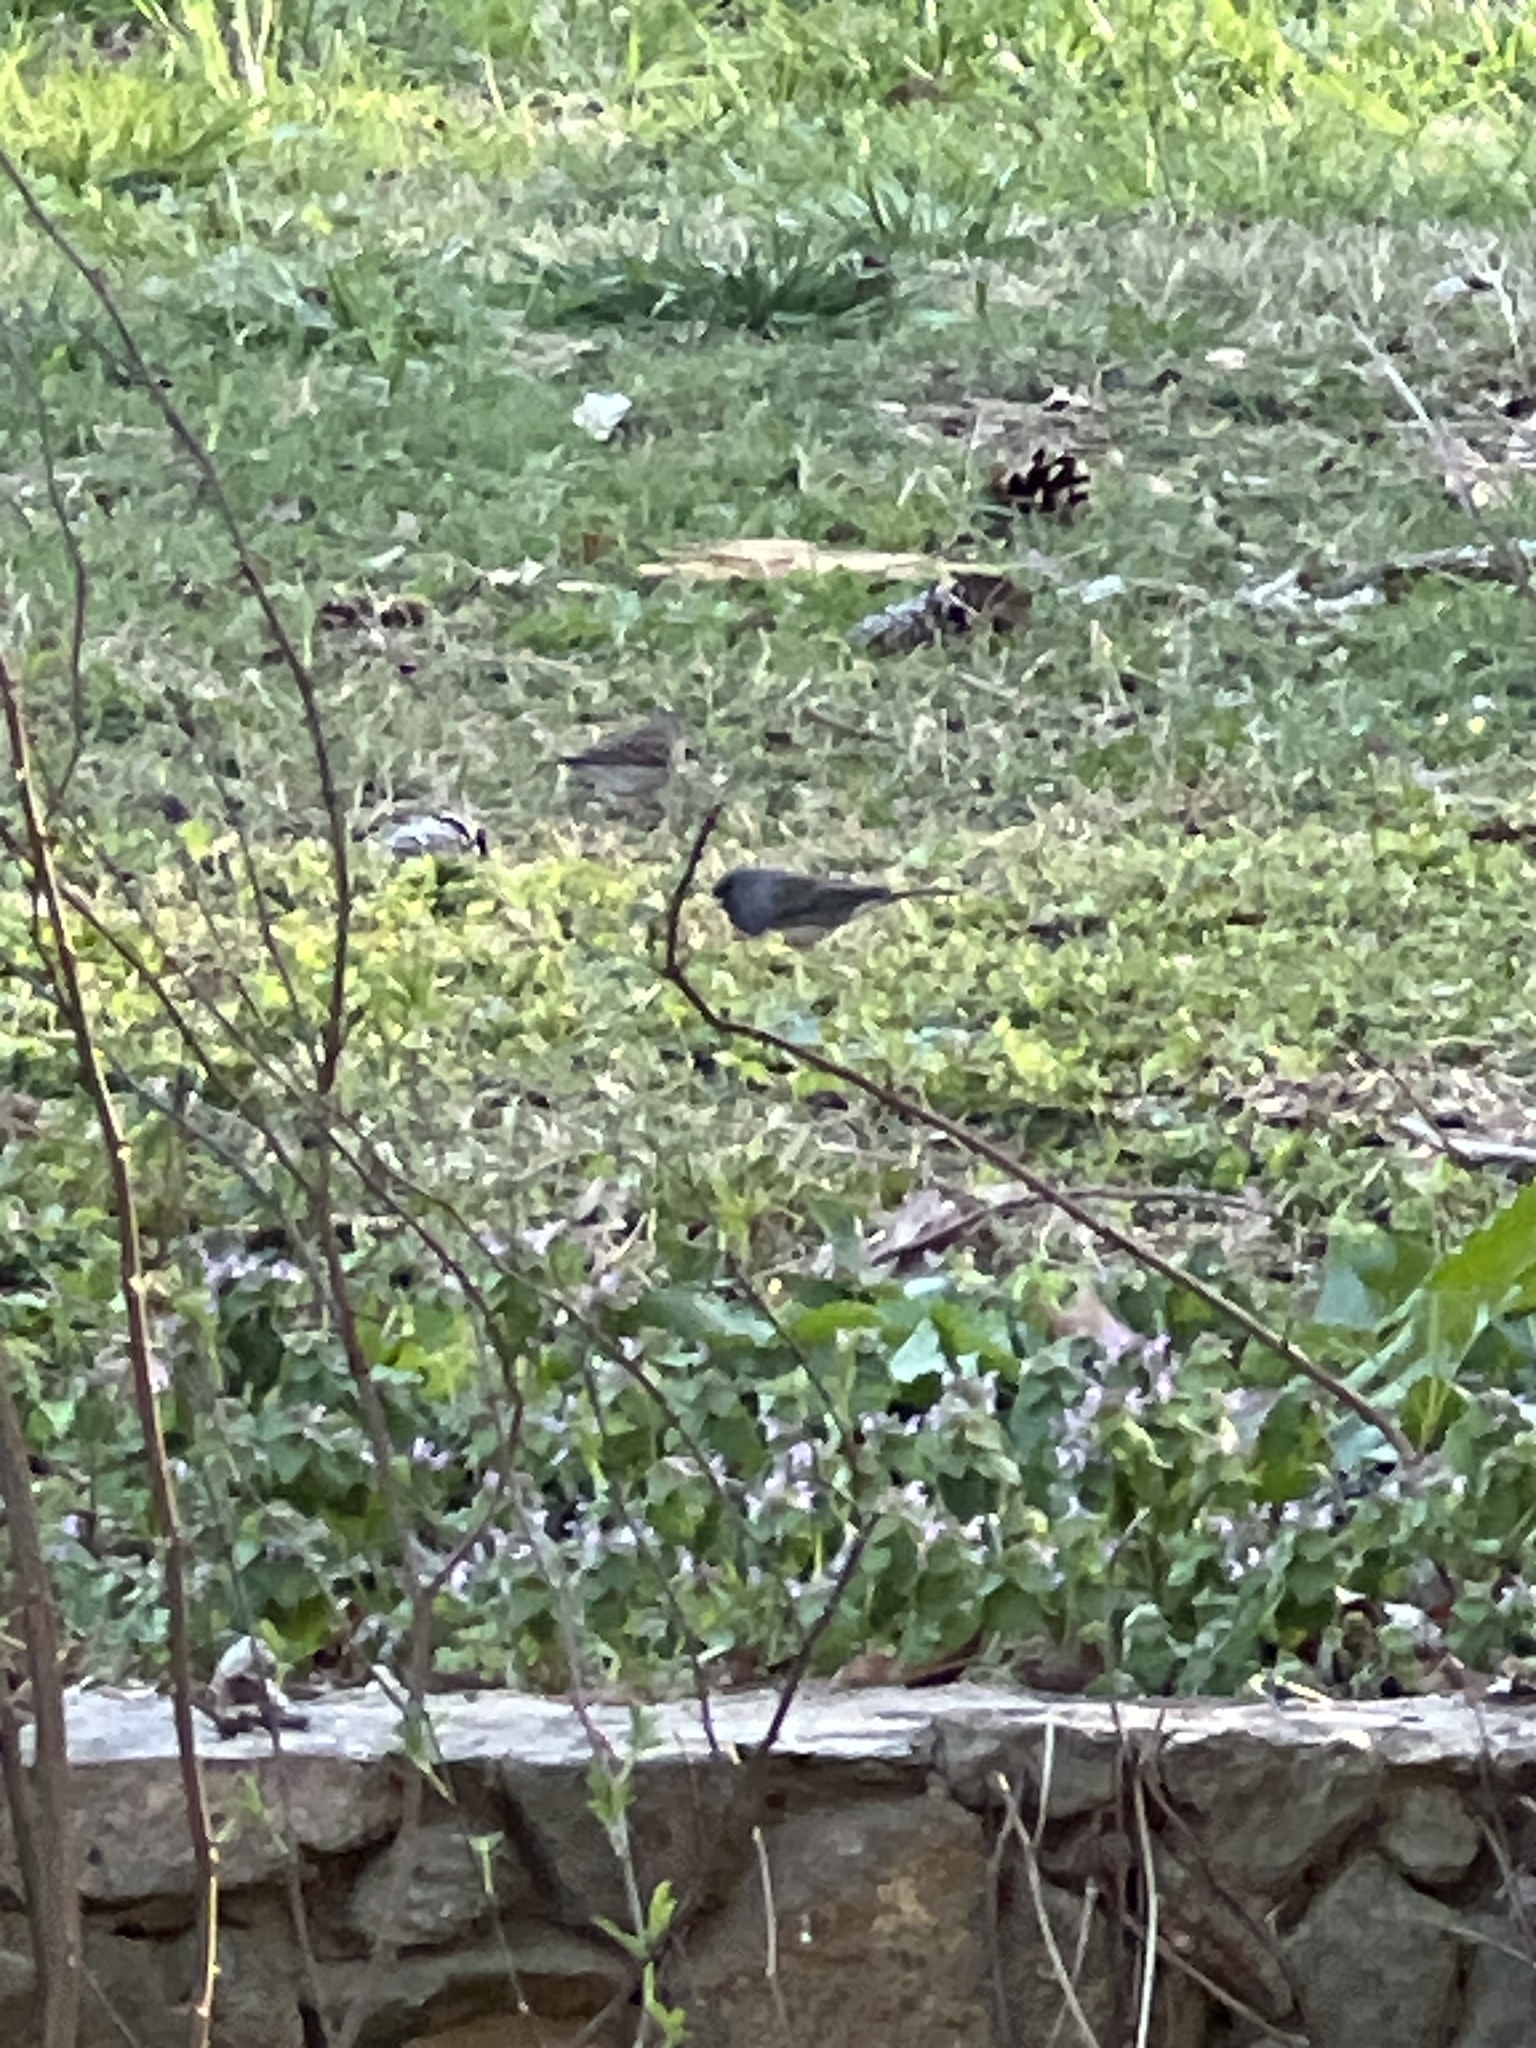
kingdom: Animalia
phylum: Chordata
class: Aves
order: Passeriformes
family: Passerellidae
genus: Junco
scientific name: Junco hyemalis
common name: Dark-eyed junco
